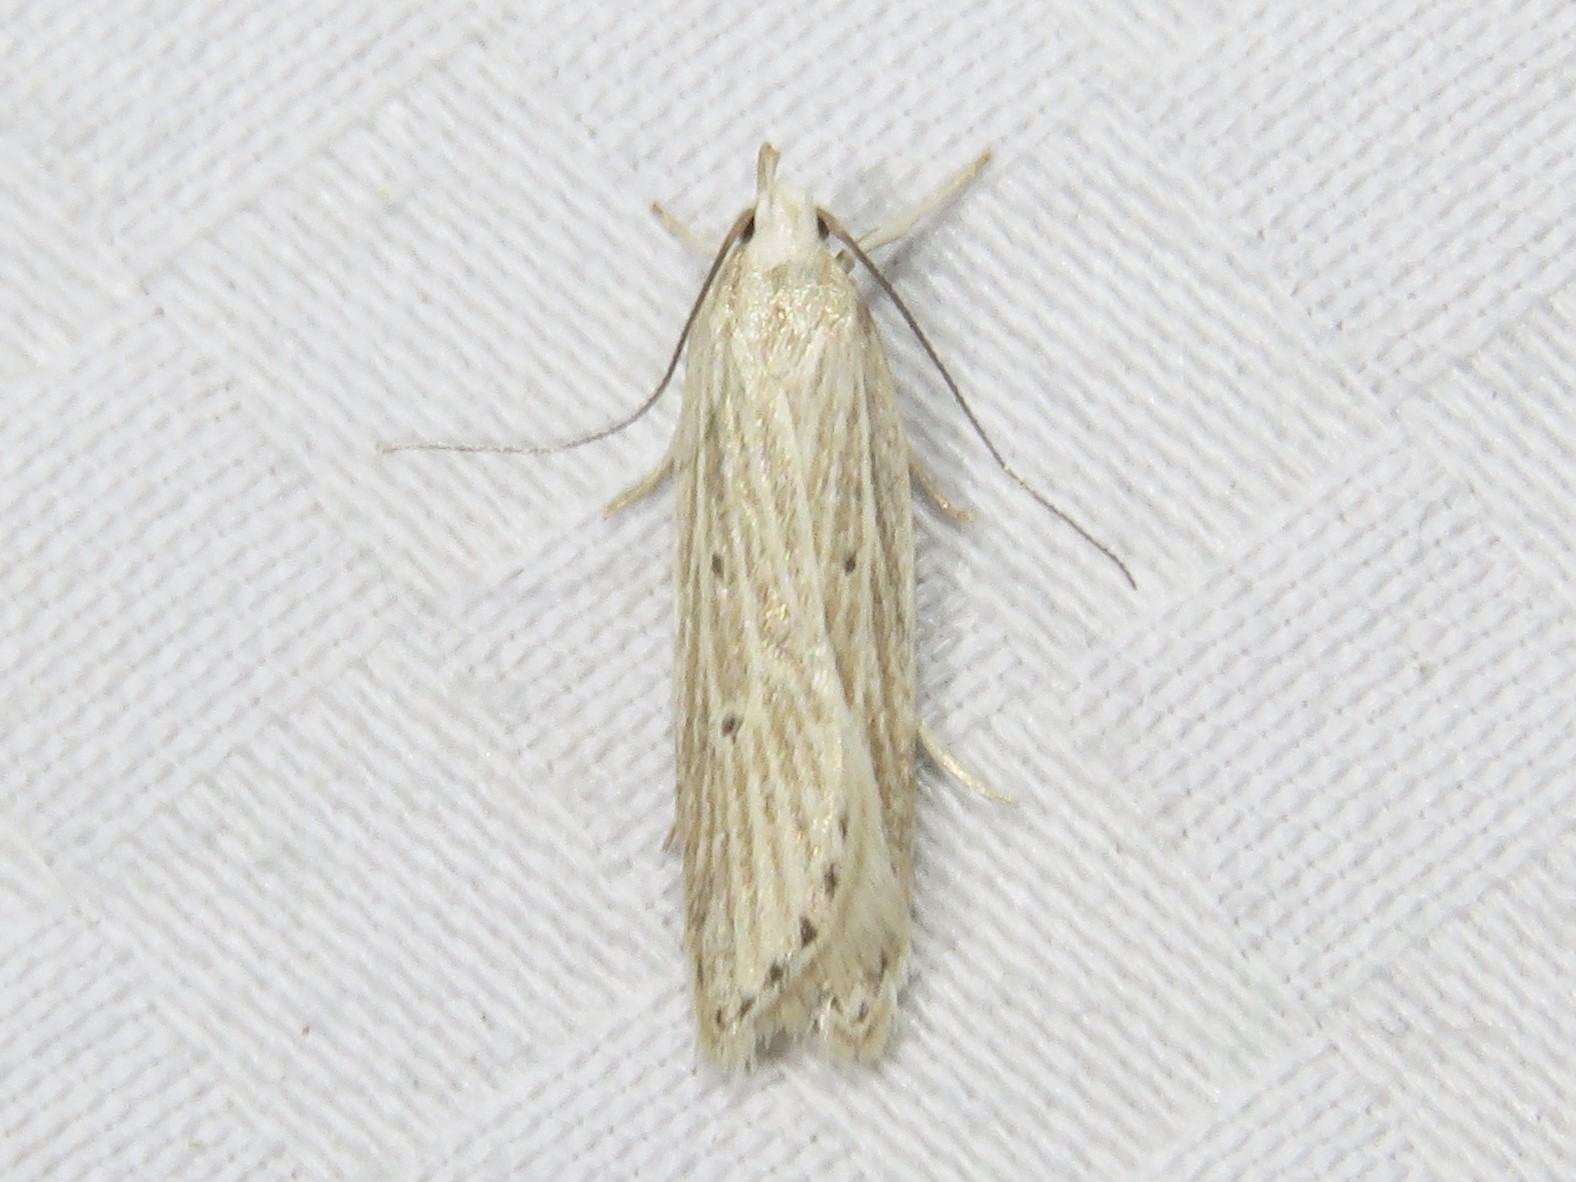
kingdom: Animalia
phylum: Arthropoda
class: Insecta
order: Lepidoptera
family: Gelechiidae
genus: Helcystogramma
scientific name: Helcystogramma fernaldella
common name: Fernald's helcystogramma moth
